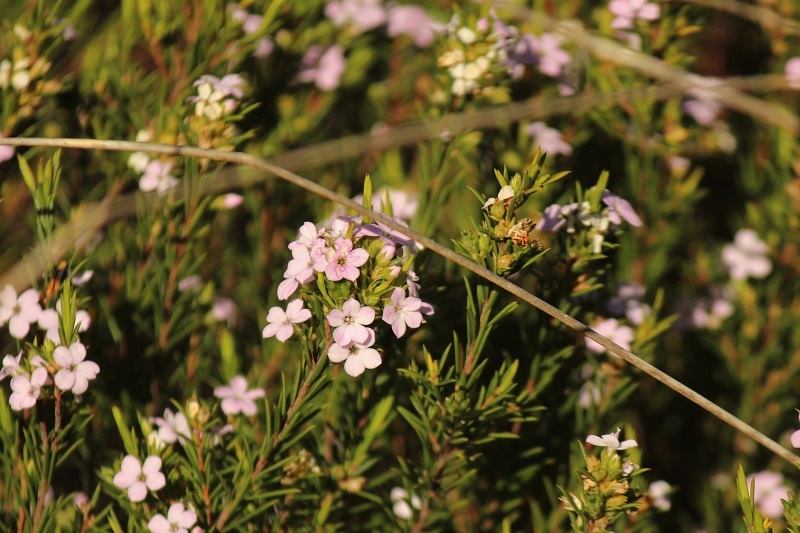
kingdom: Plantae
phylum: Tracheophyta
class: Magnoliopsida
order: Sapindales
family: Rutaceae
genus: Coleonema
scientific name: Coleonema pulchellum
